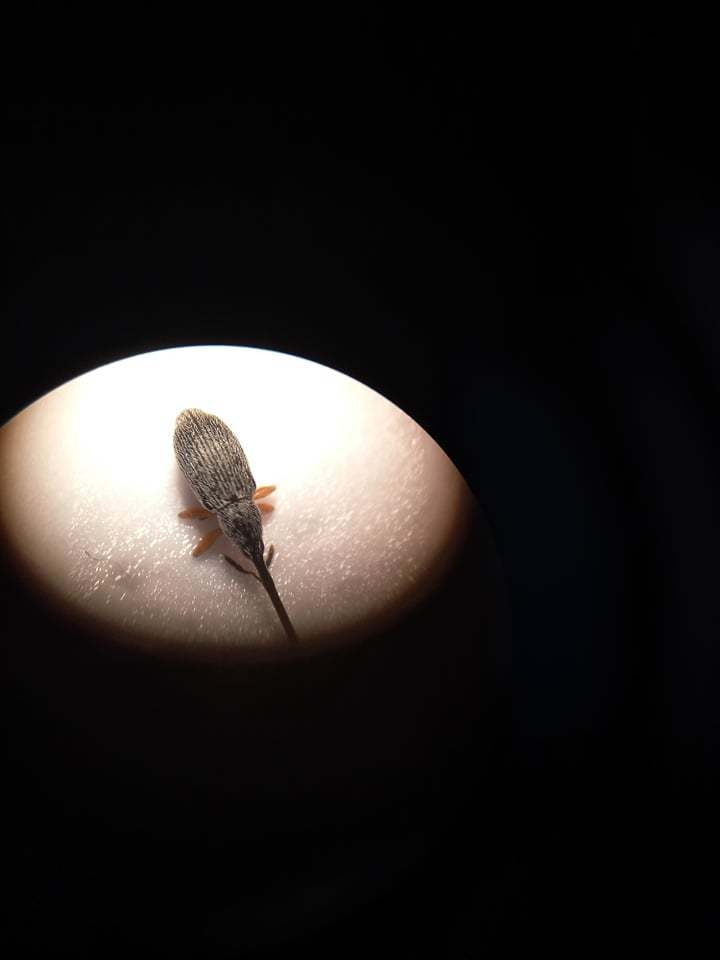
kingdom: Animalia
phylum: Arthropoda
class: Insecta
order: Coleoptera
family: Brentidae
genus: Rhopalapion
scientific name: Rhopalapion longirostre
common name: Hollyhock weevil
